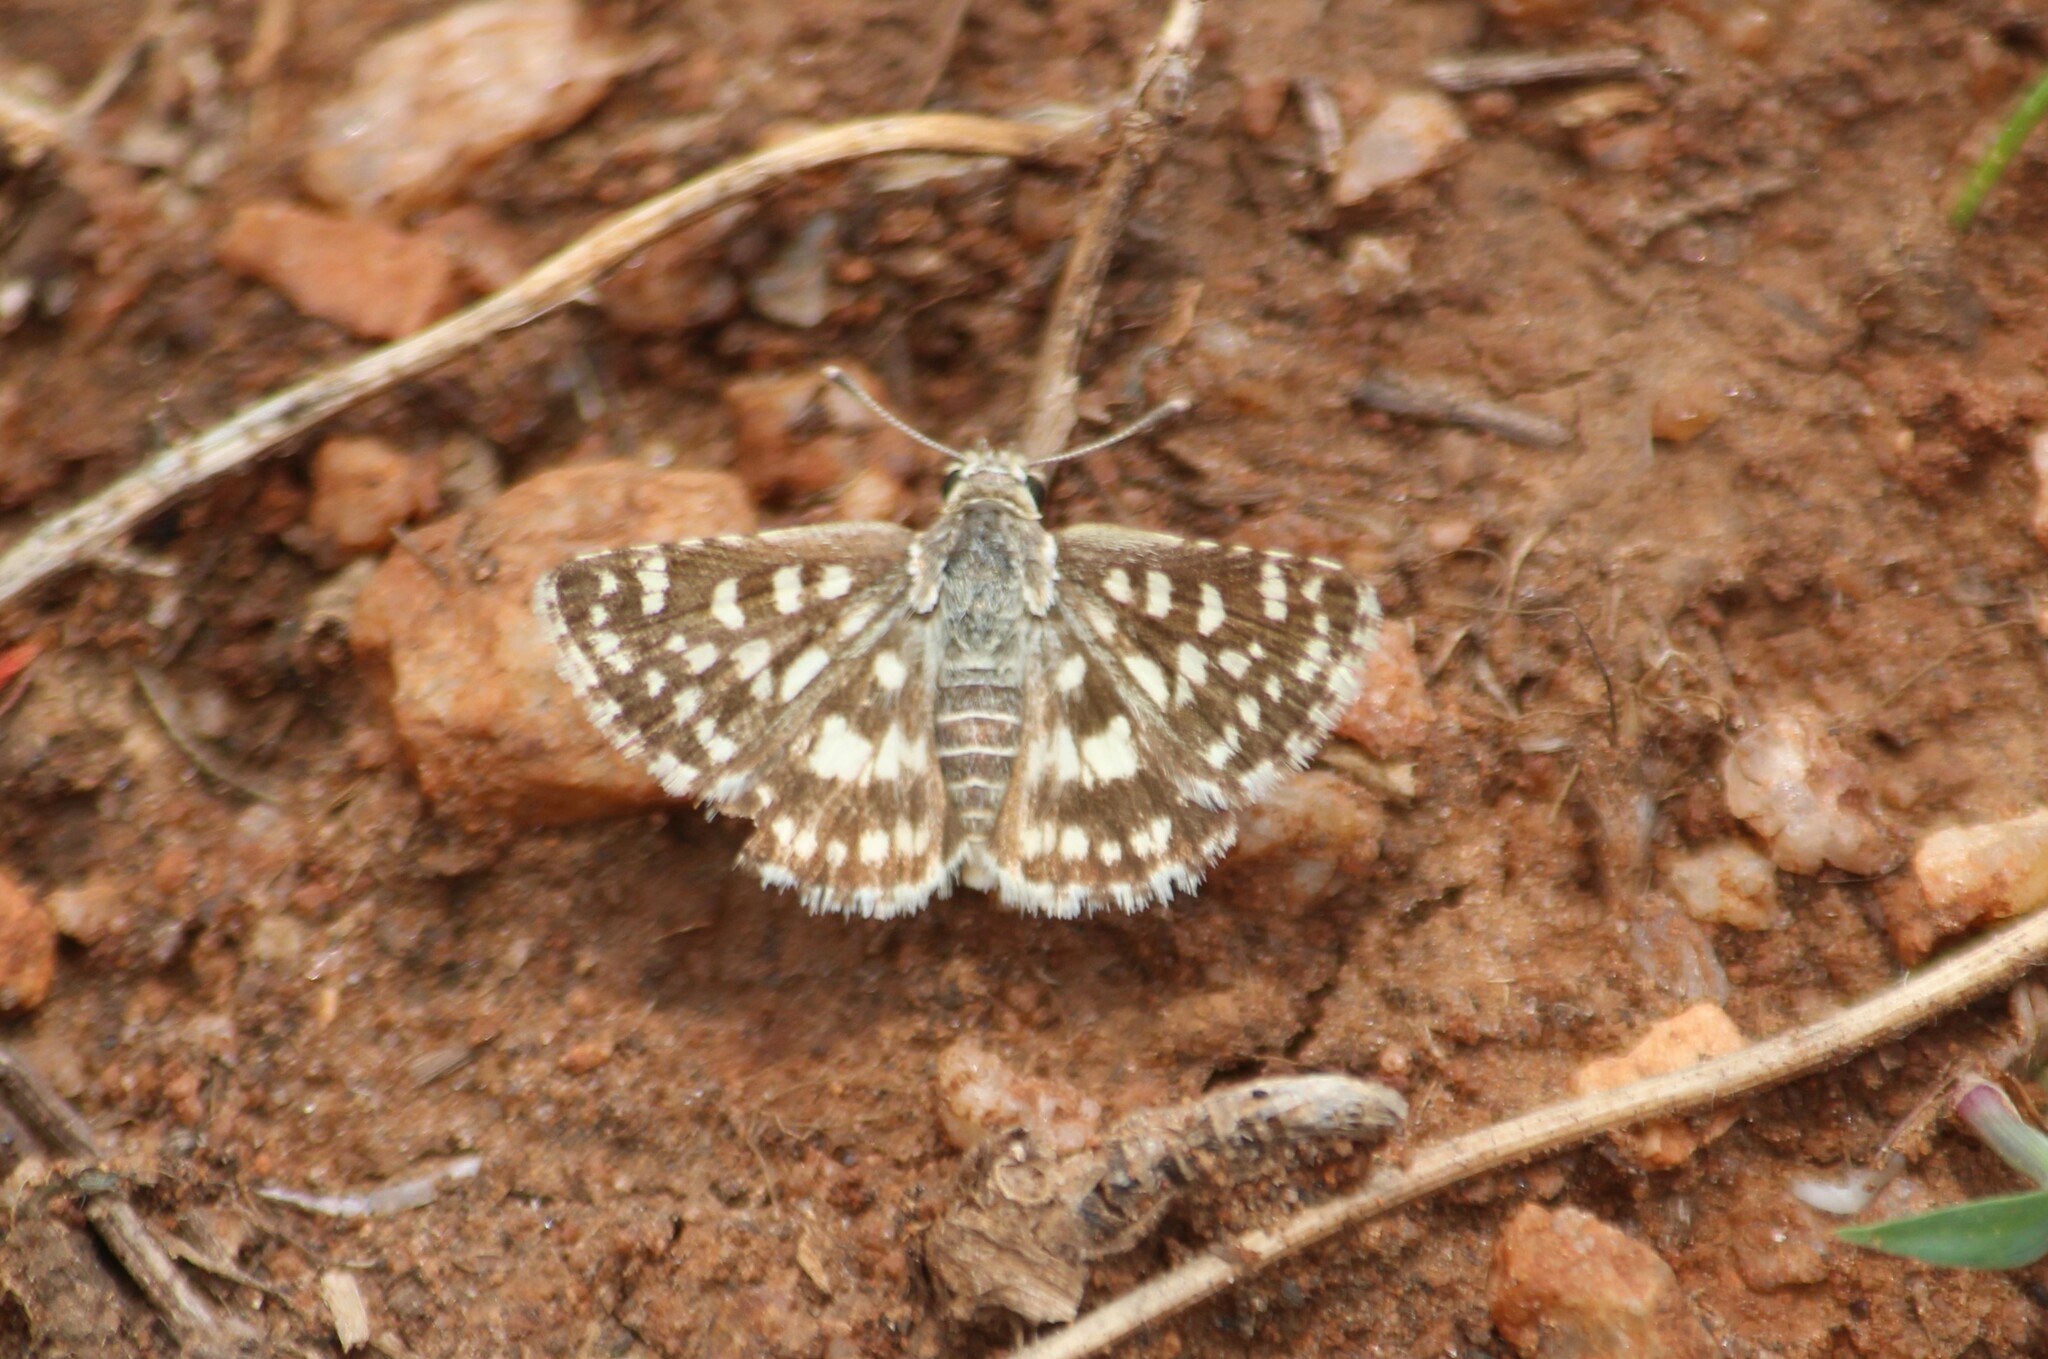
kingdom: Animalia
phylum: Arthropoda
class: Insecta
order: Lepidoptera
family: Hesperiidae
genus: Spialia
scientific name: Spialia galba
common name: Indian skipper
